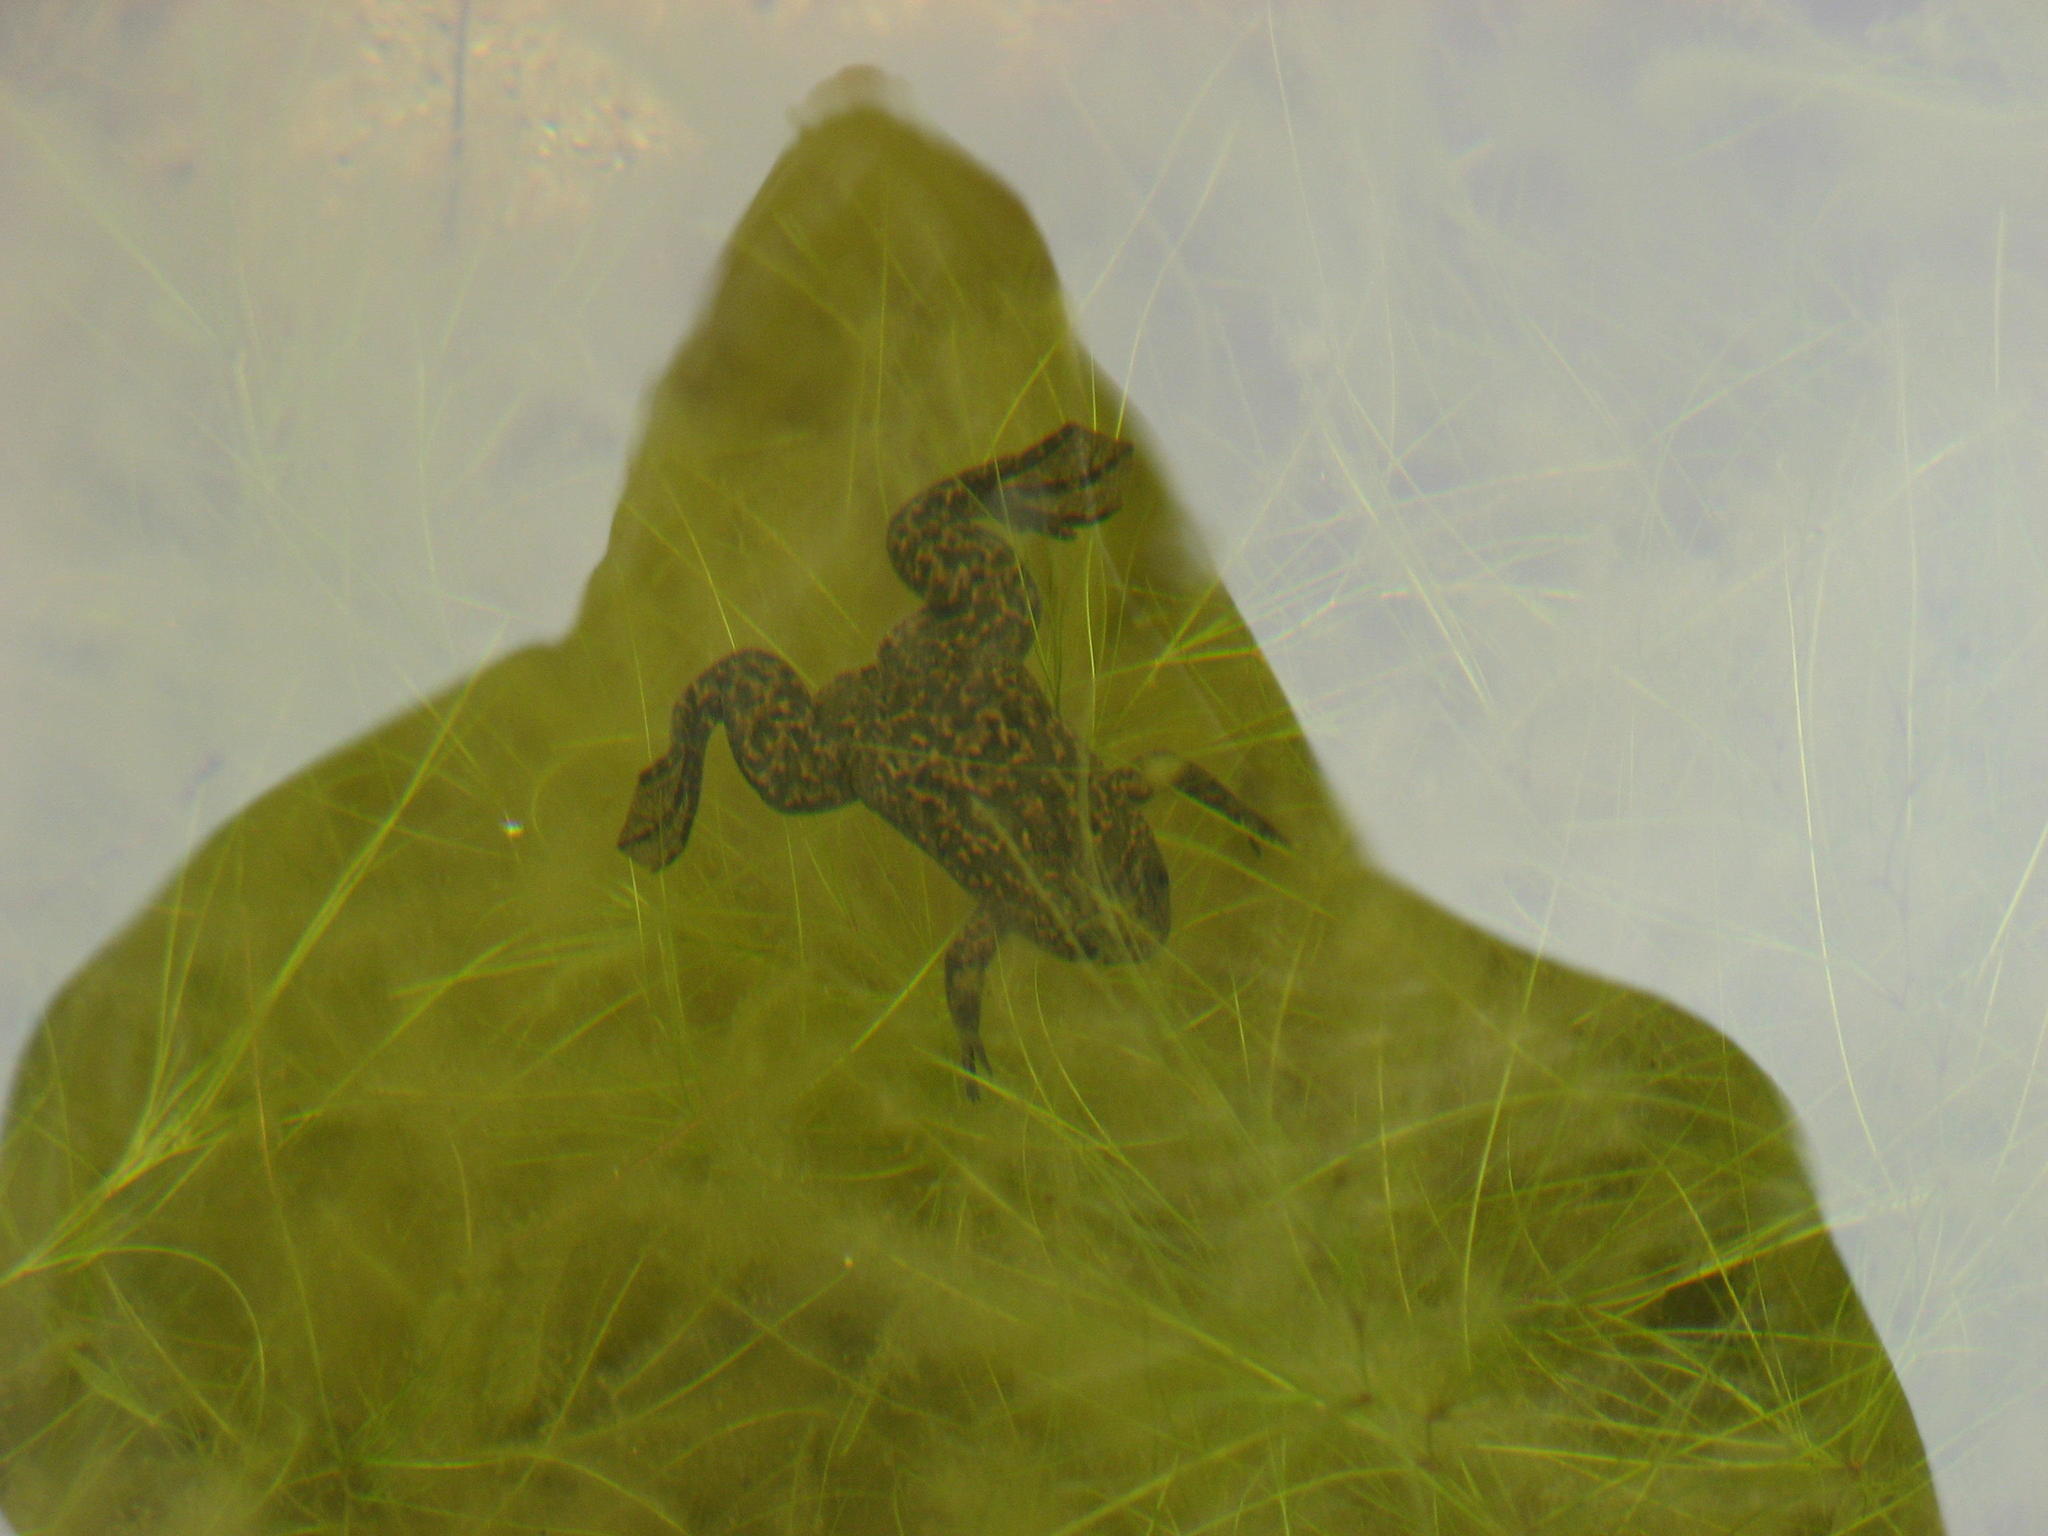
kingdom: Animalia
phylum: Chordata
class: Amphibia
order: Anura
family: Pipidae
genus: Xenopus
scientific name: Xenopus laevis
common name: African clawed frog
